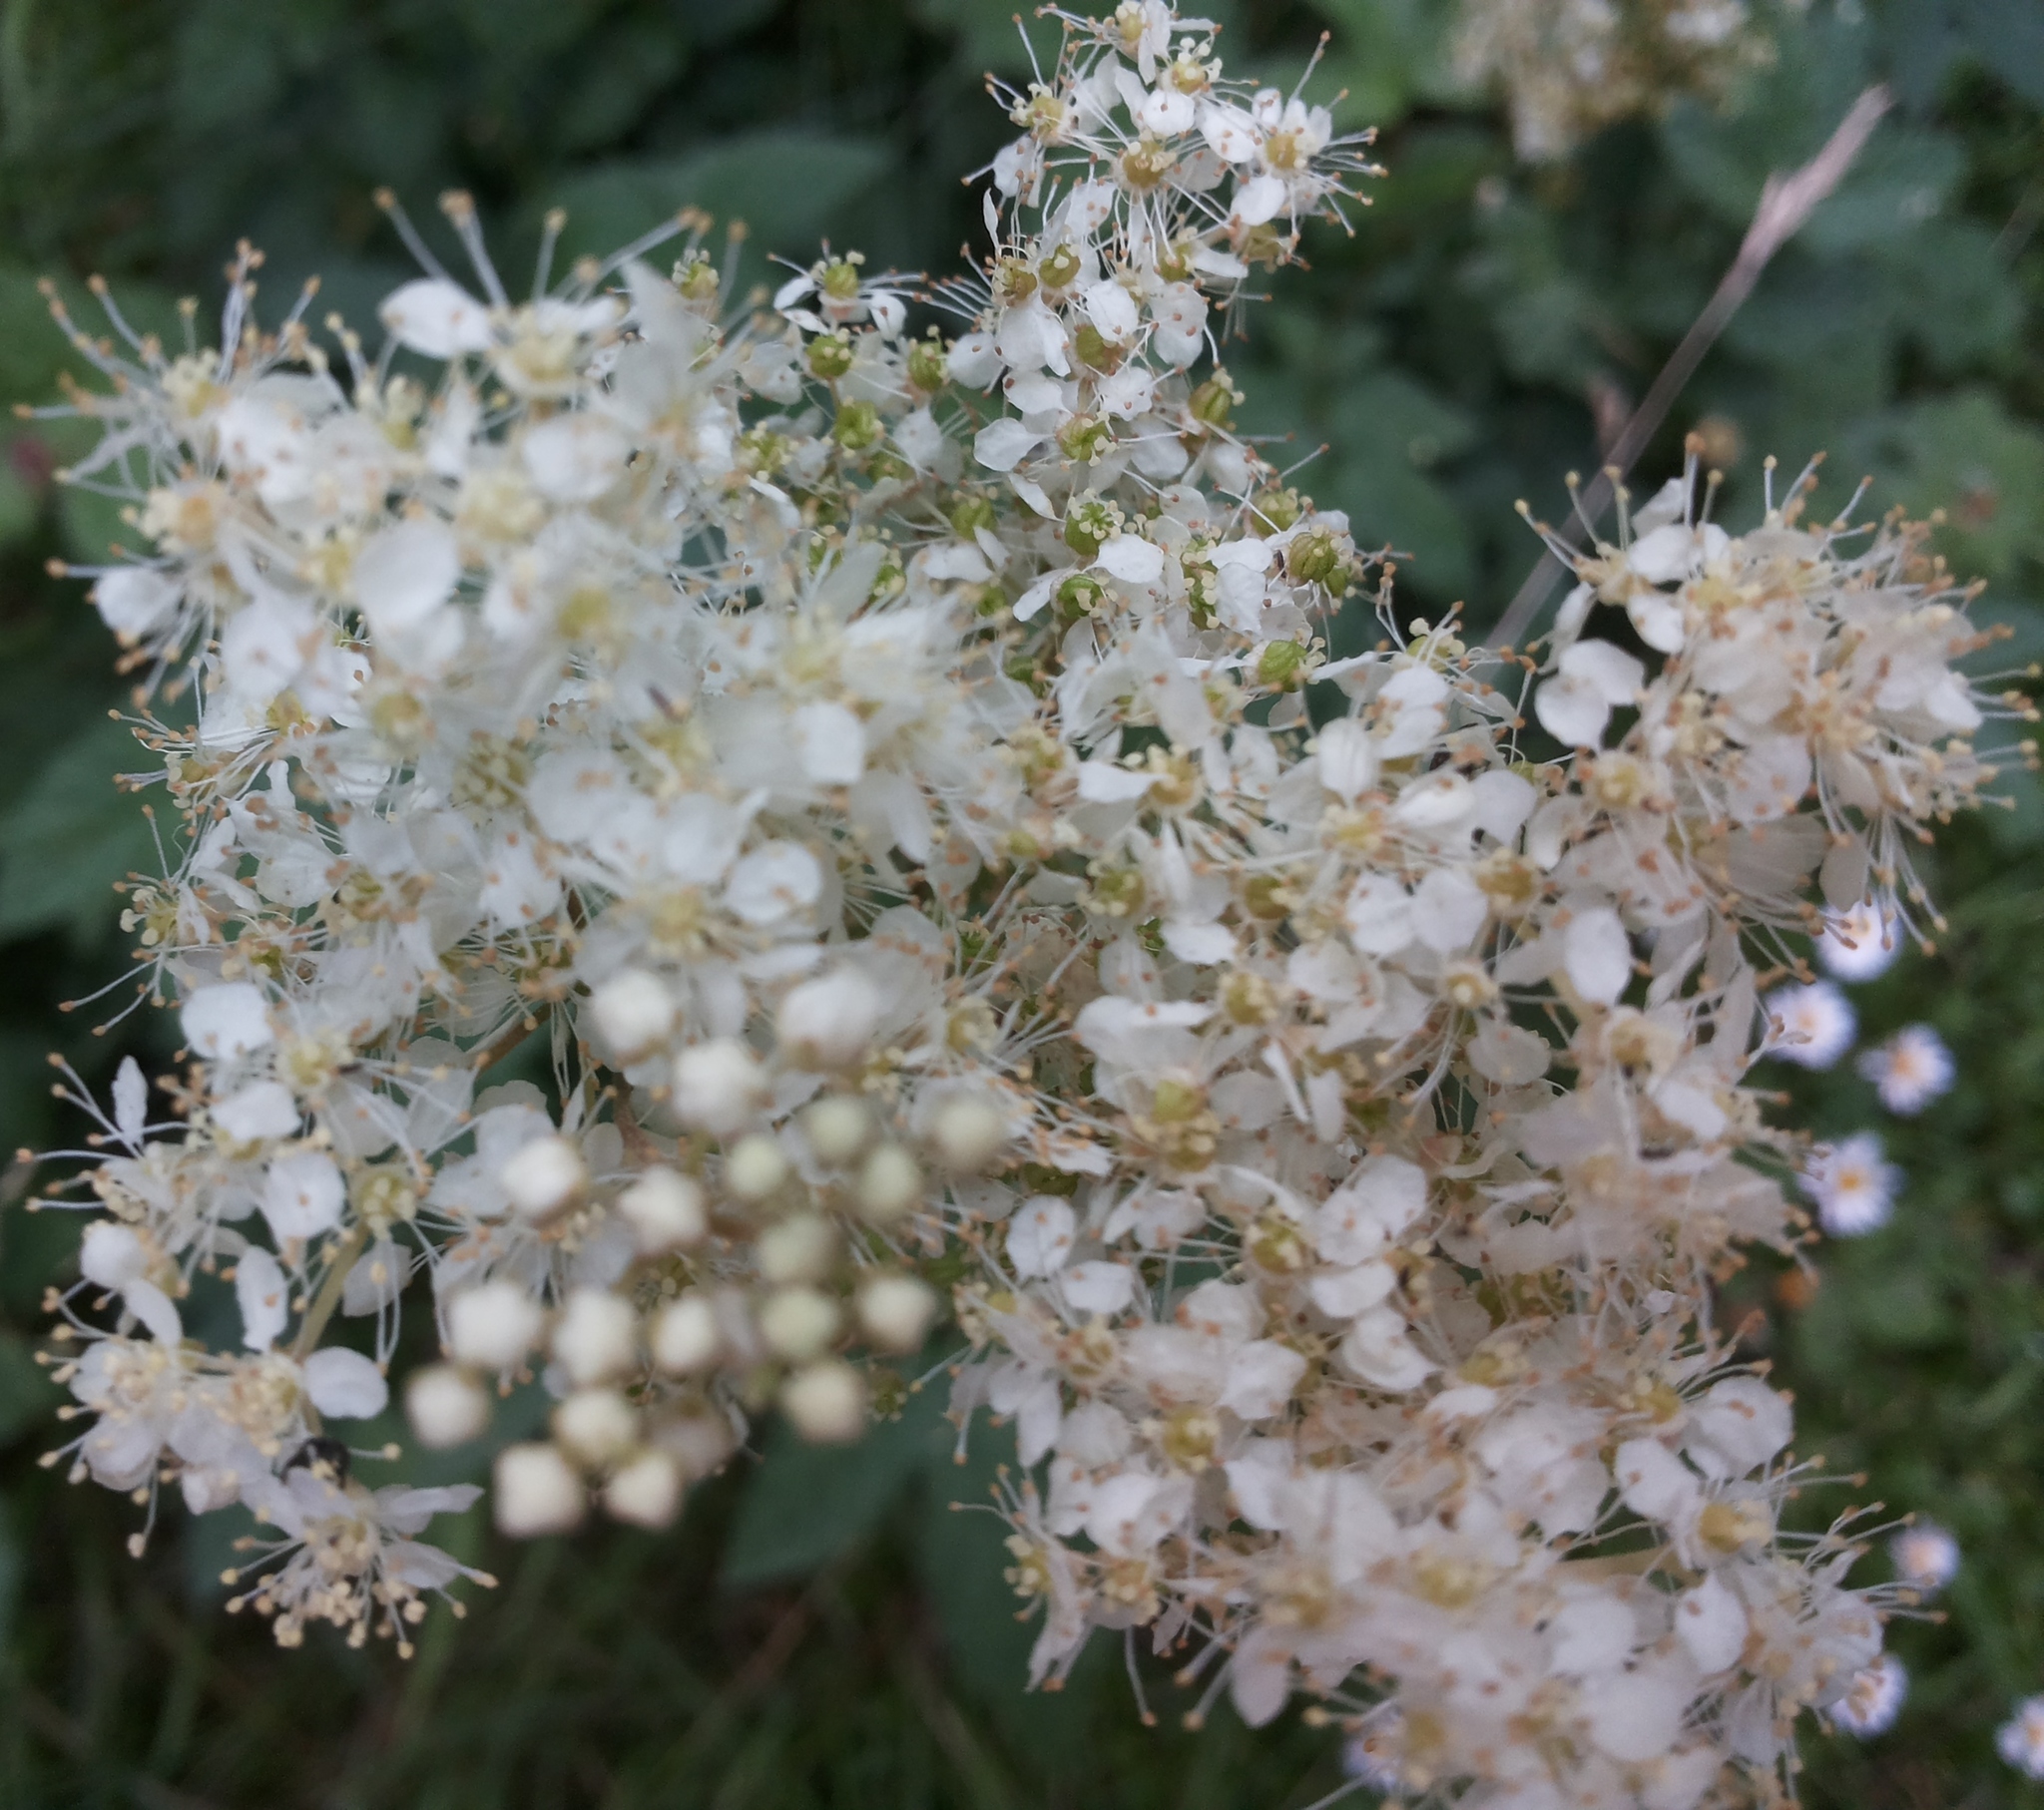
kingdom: Plantae
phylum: Tracheophyta
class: Magnoliopsida
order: Rosales
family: Rosaceae
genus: Filipendula
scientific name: Filipendula ulmaria
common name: Meadowsweet
